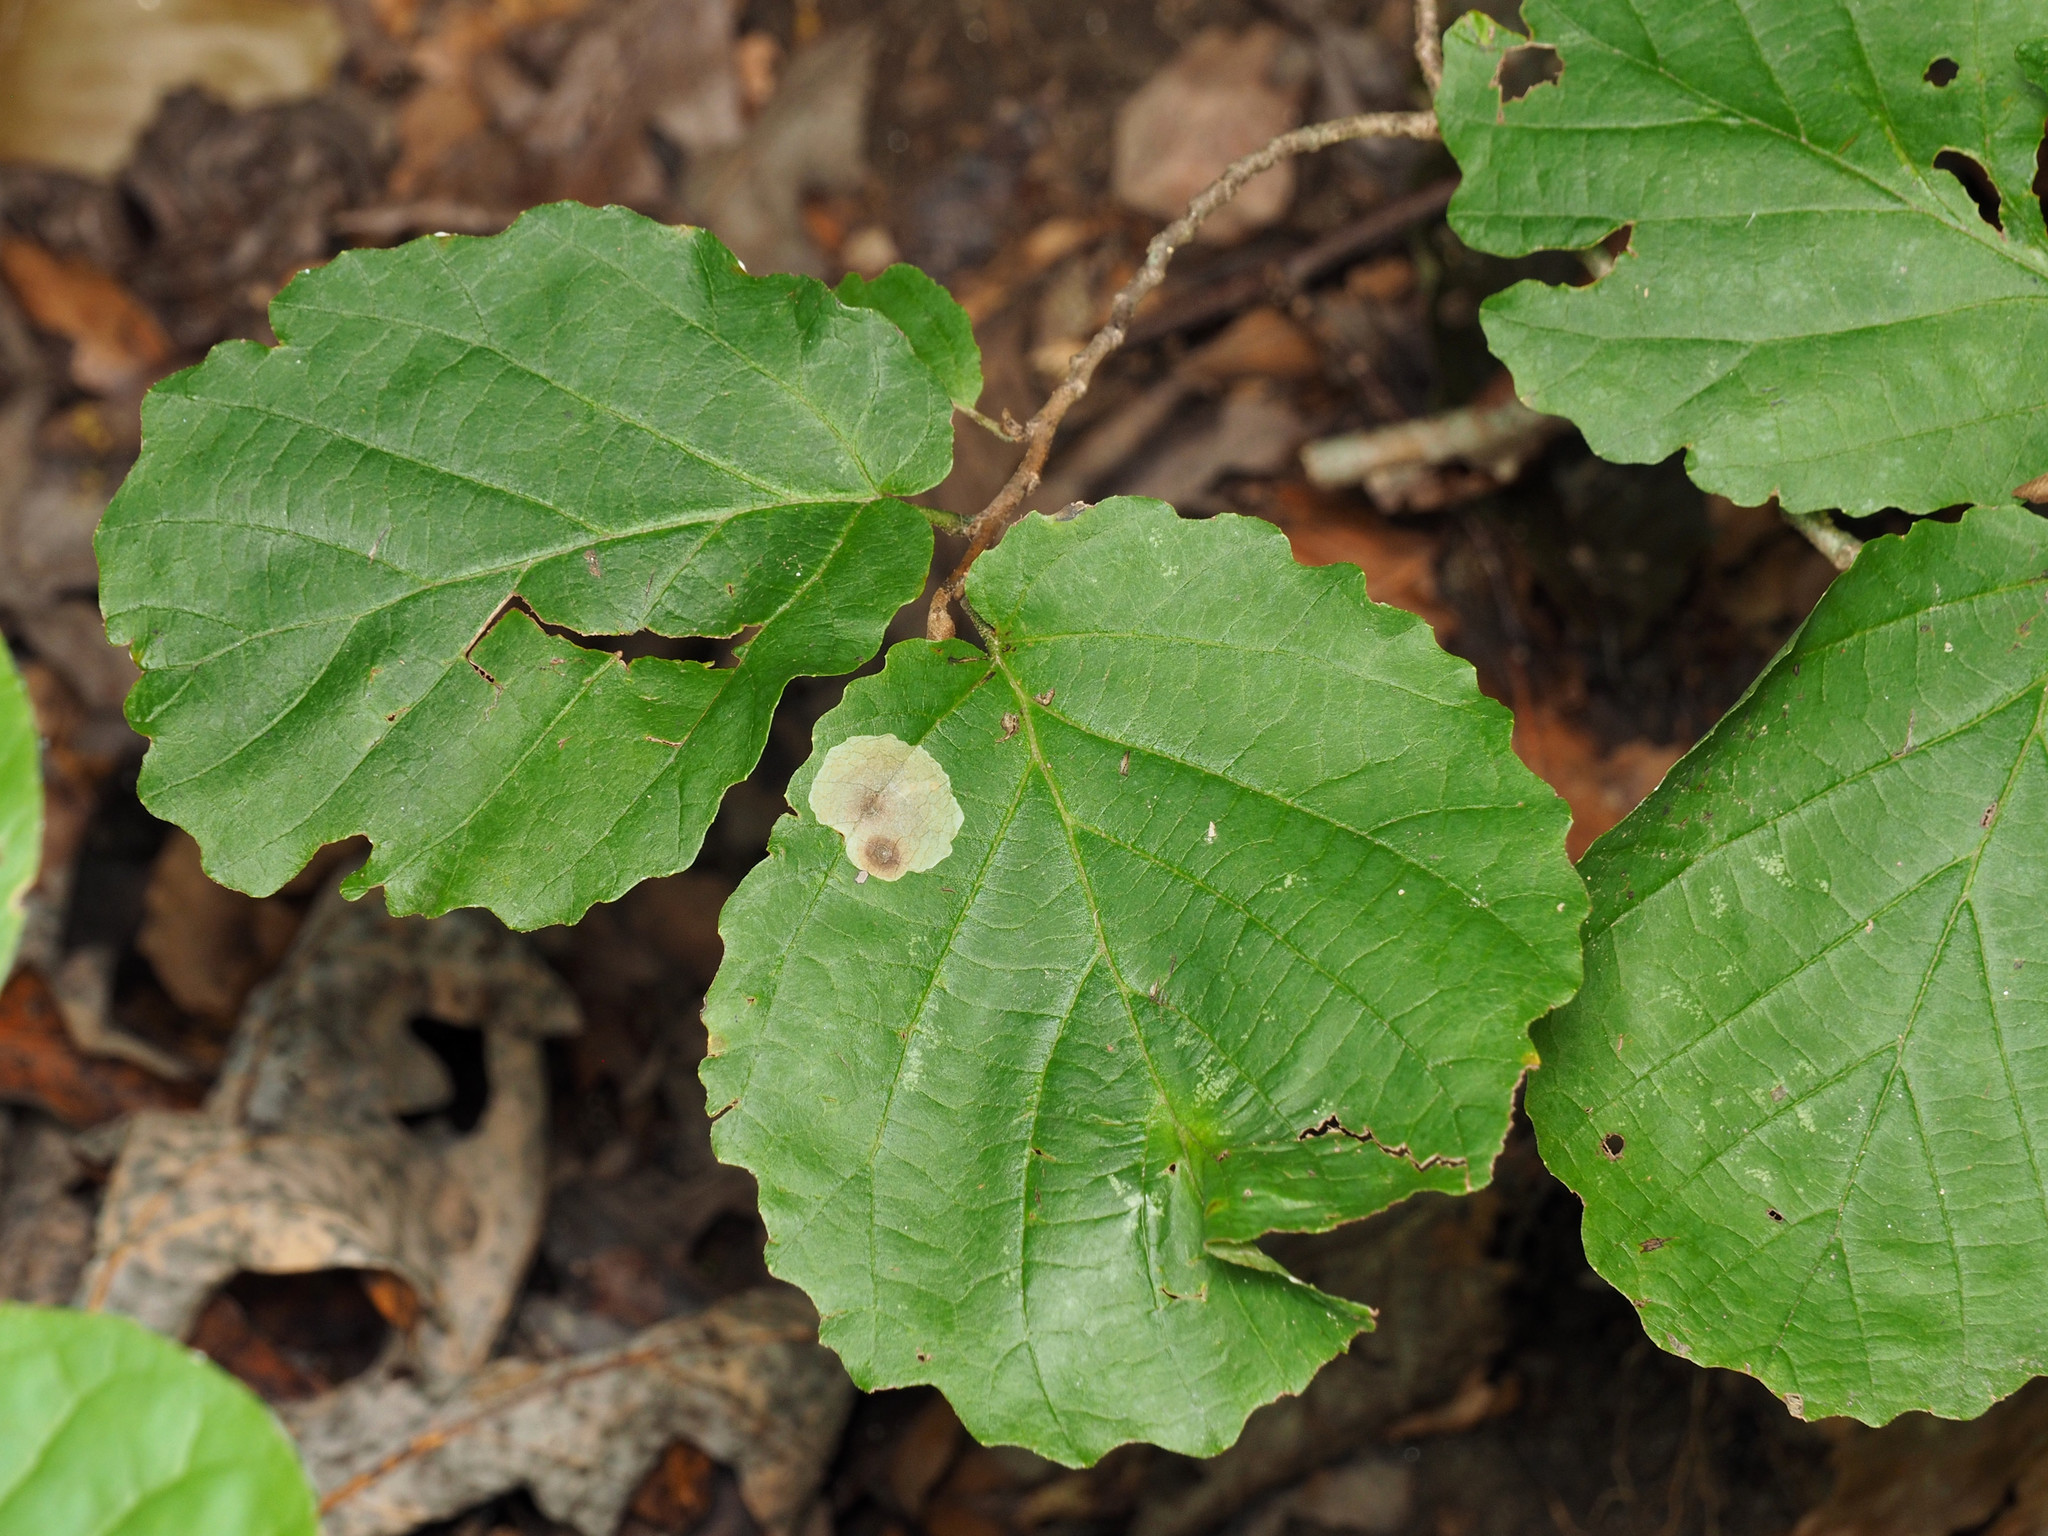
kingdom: Animalia
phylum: Arthropoda
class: Insecta
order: Lepidoptera
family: Gracillariidae
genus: Cameraria
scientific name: Cameraria hamameliella
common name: Witchhazel leafminer
